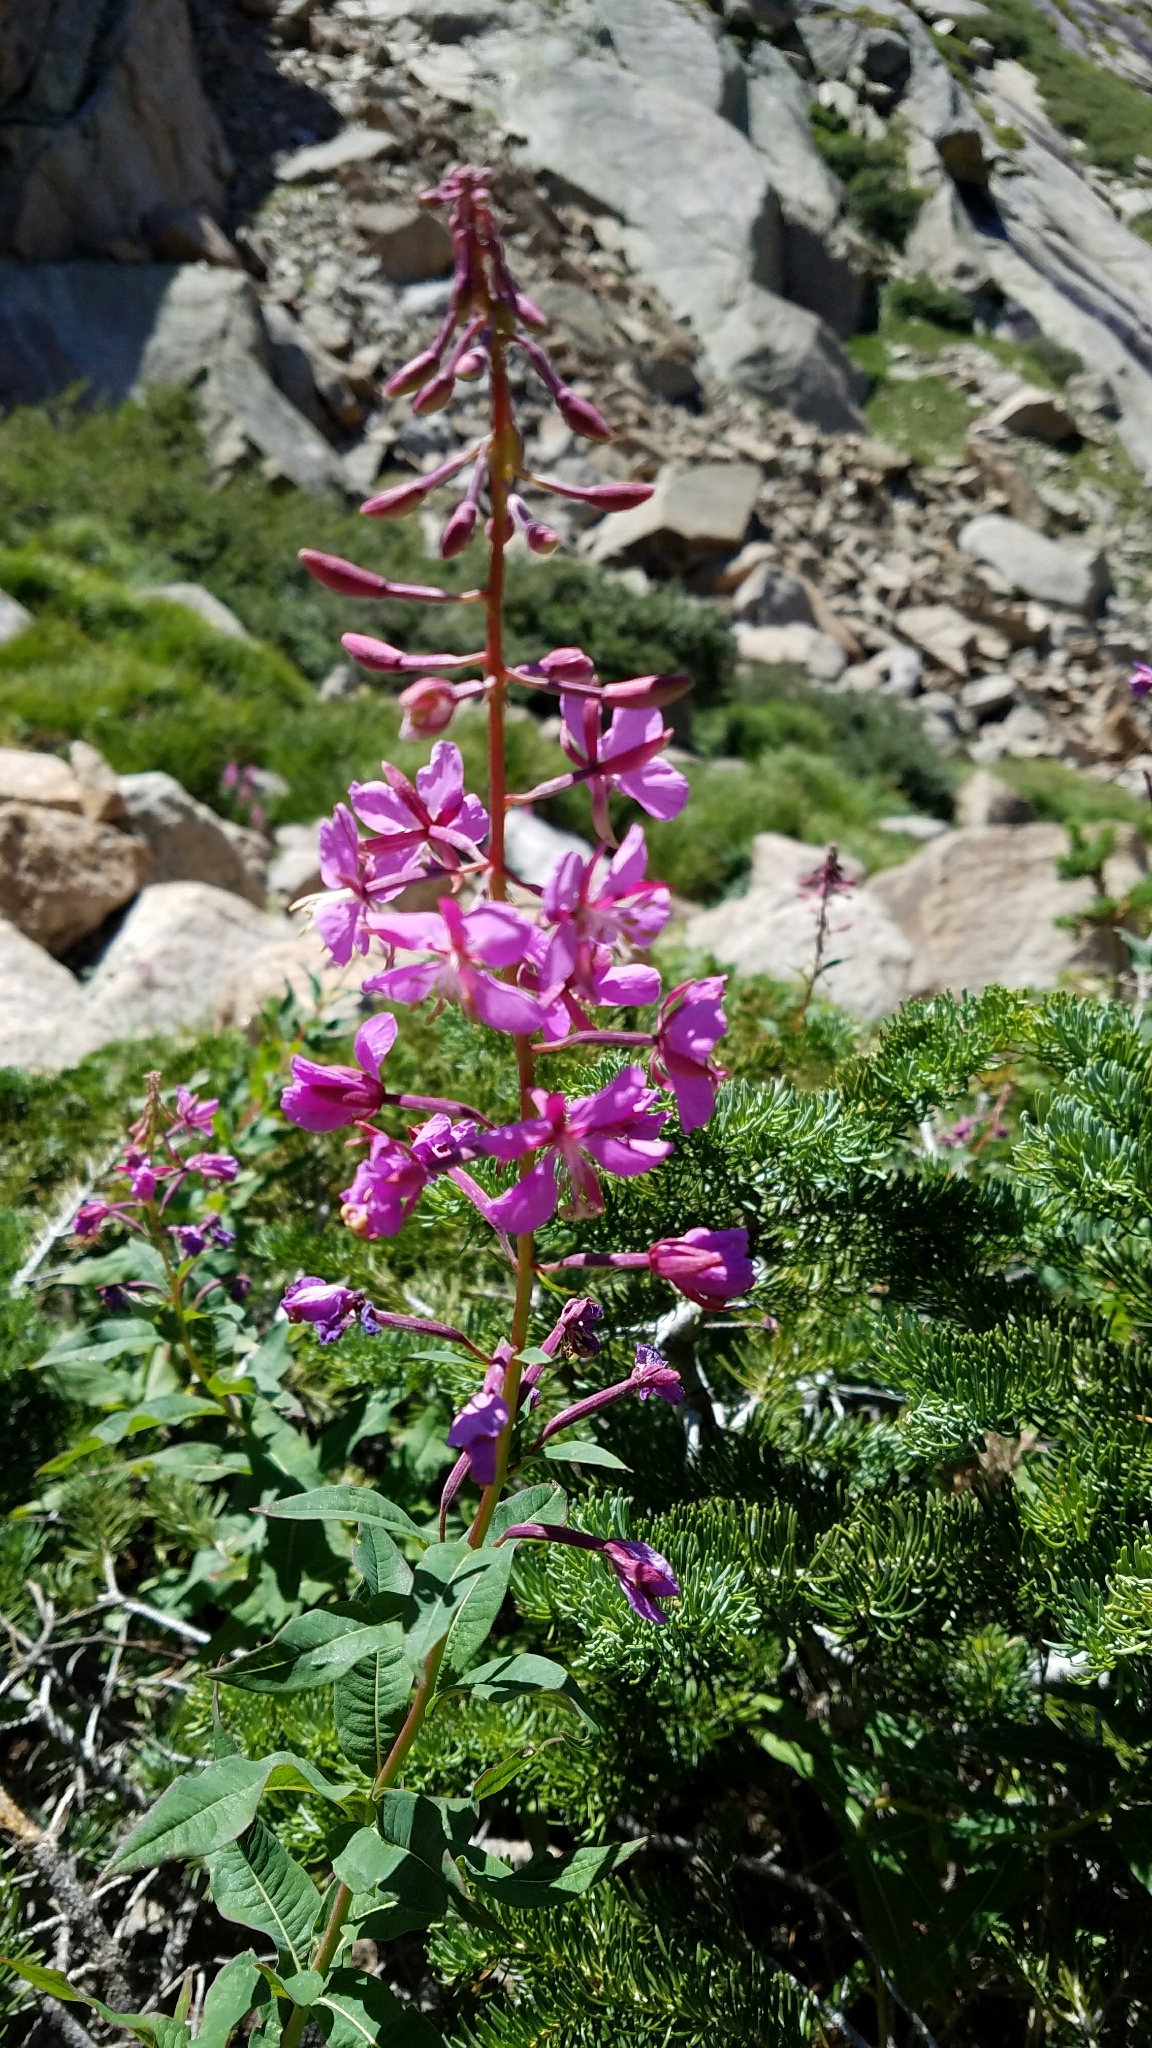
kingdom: Plantae
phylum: Tracheophyta
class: Magnoliopsida
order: Myrtales
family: Onagraceae
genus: Chamaenerion
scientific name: Chamaenerion angustifolium
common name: Fireweed
